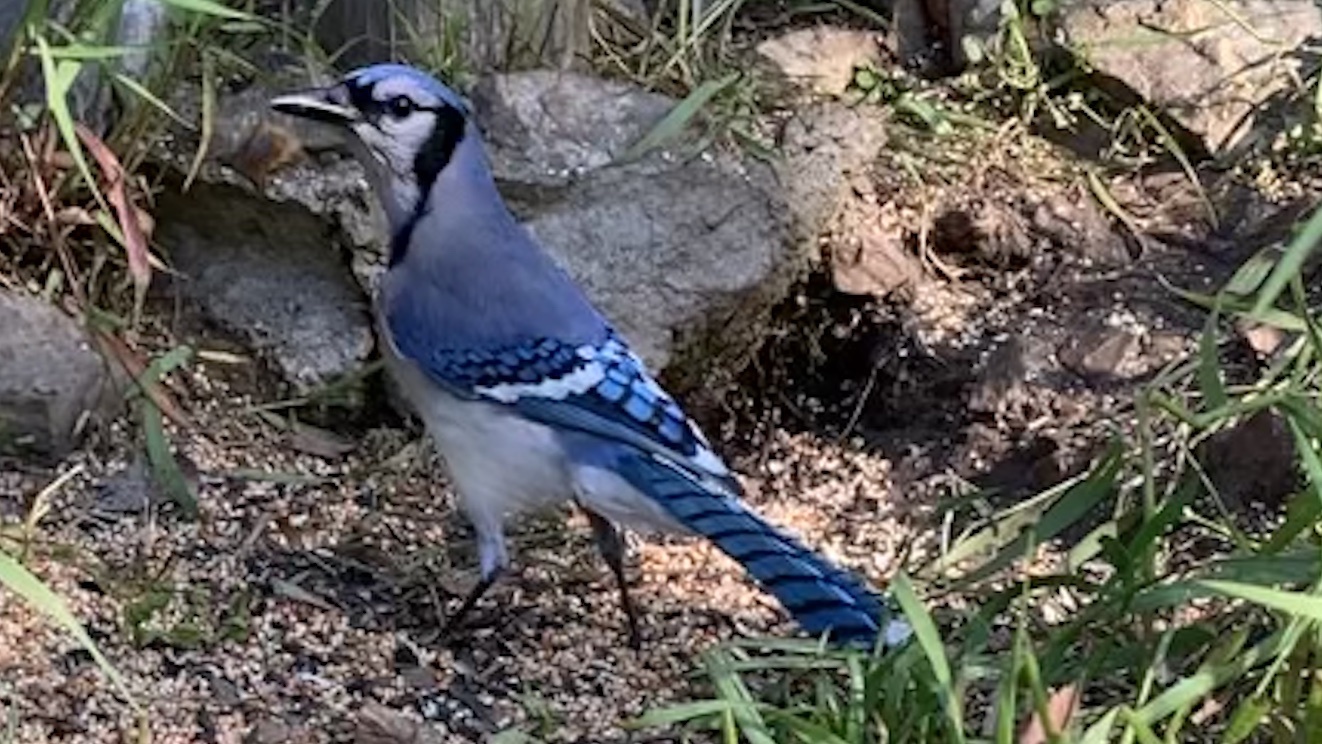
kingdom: Animalia
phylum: Chordata
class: Aves
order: Passeriformes
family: Corvidae
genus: Cyanocitta
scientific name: Cyanocitta cristata
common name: Blue jay
